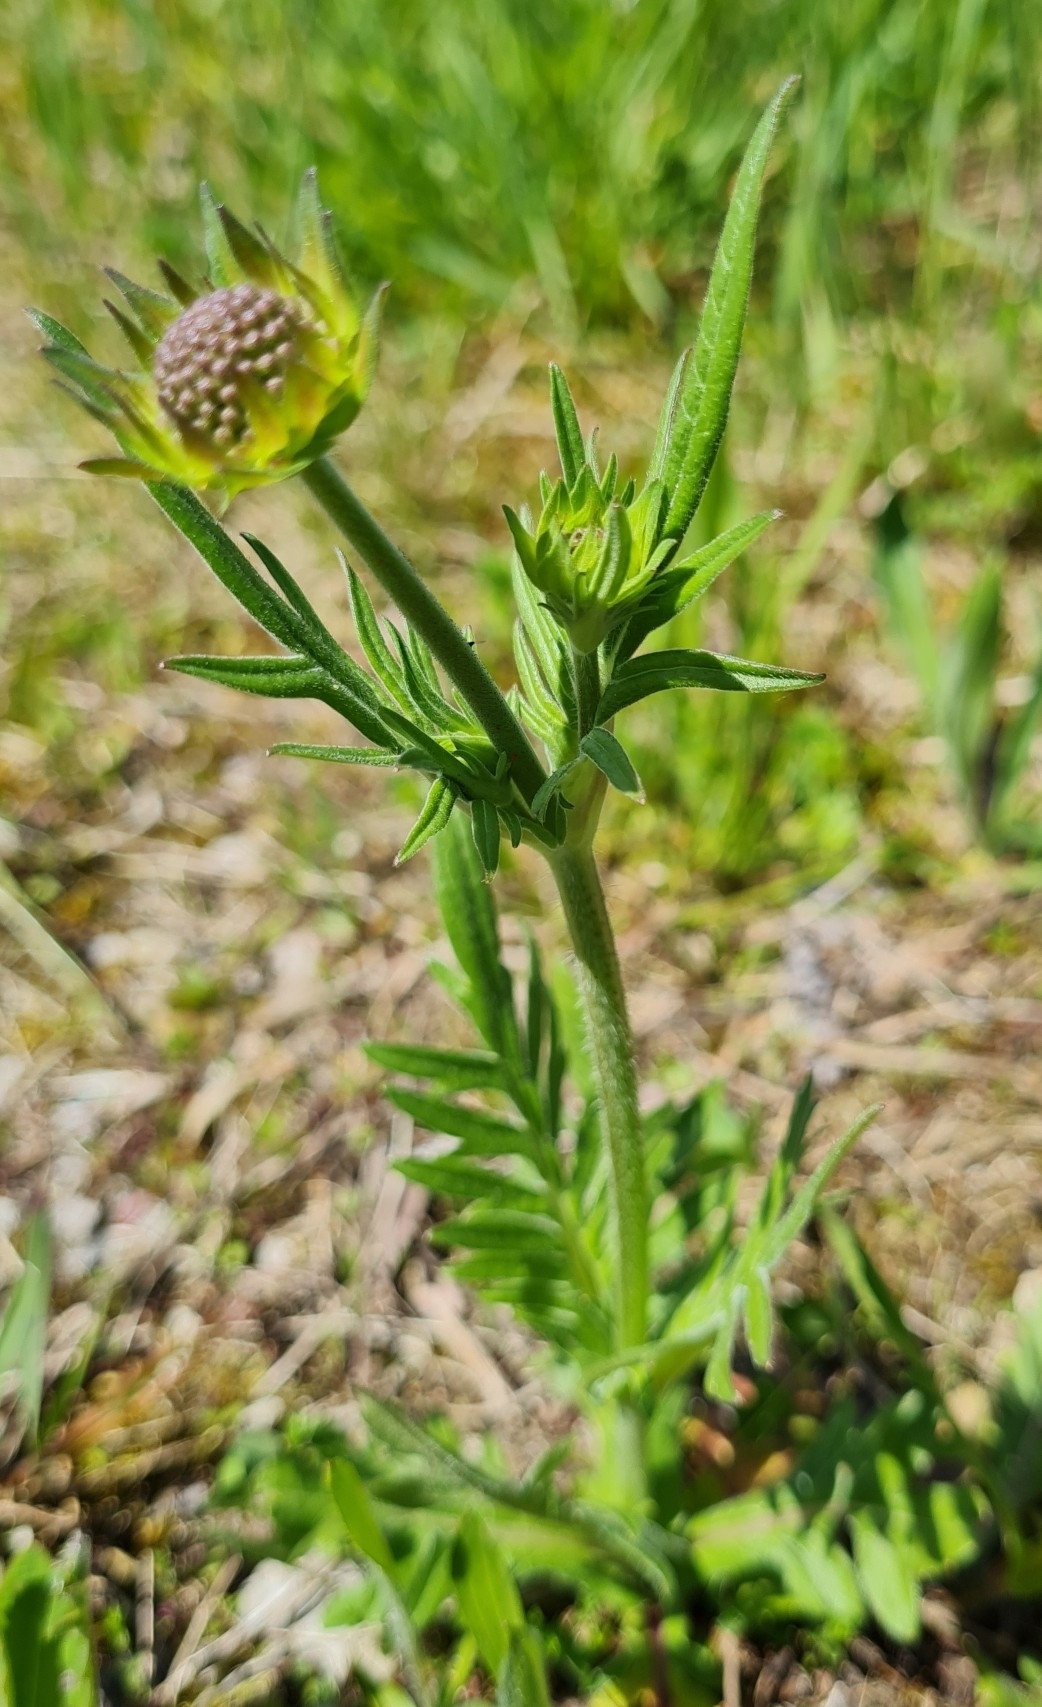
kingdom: Plantae
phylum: Tracheophyta
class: Magnoliopsida
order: Dipsacales
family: Caprifoliaceae
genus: Knautia
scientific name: Knautia arvensis
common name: Field scabiosa
